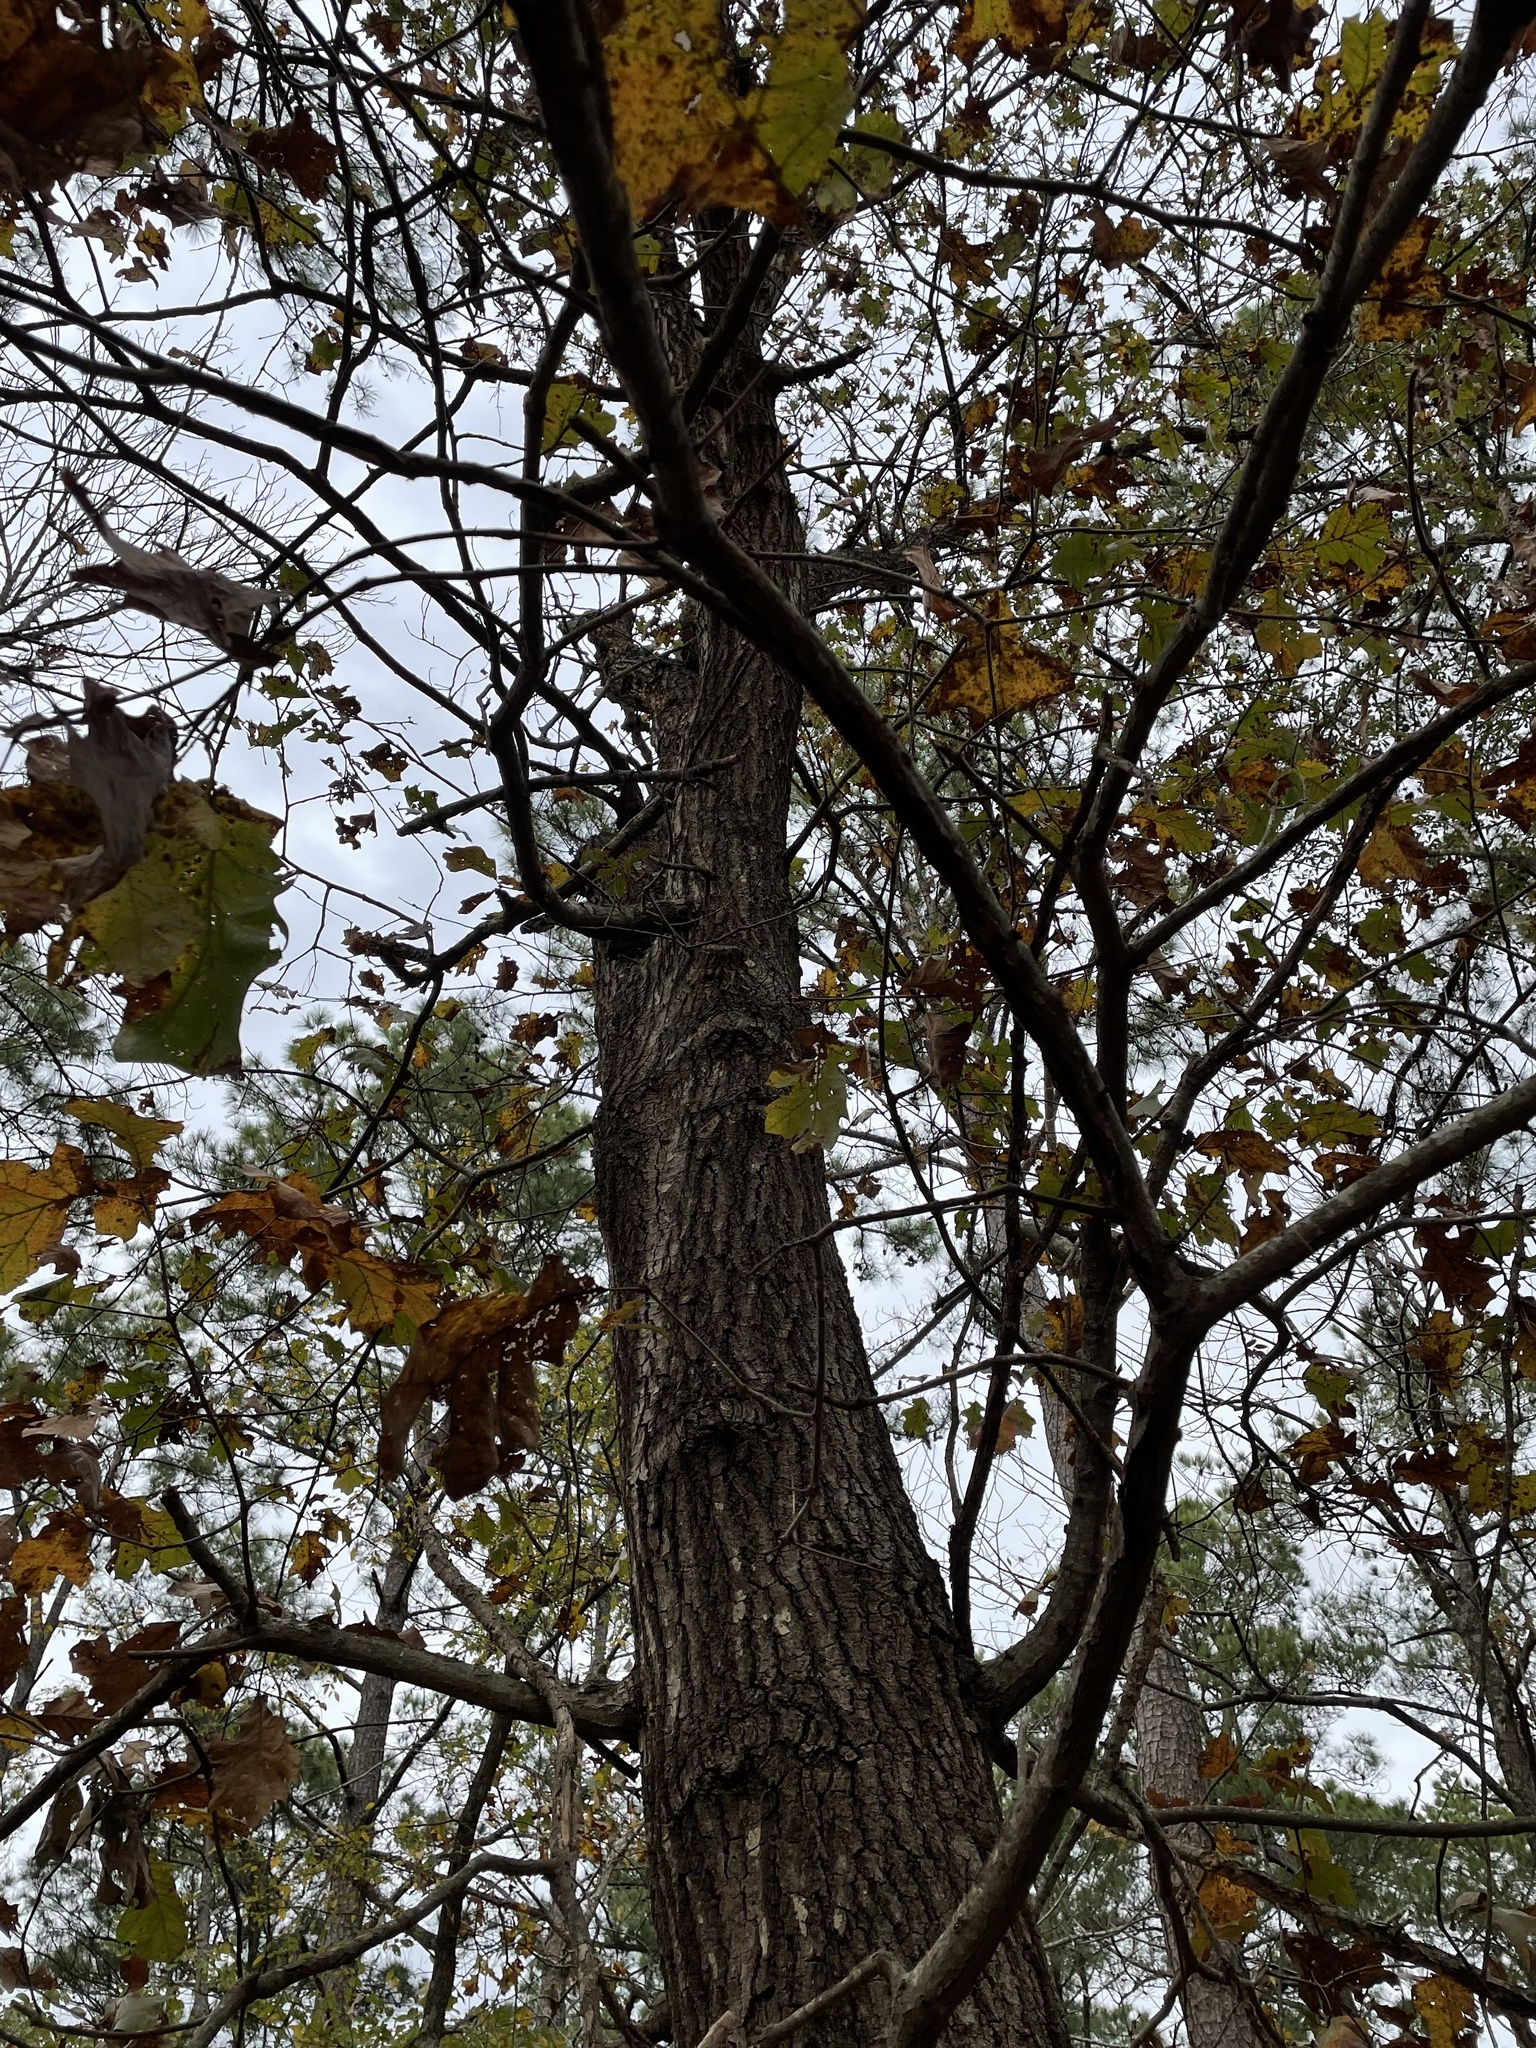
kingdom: Plantae
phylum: Tracheophyta
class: Magnoliopsida
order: Fagales
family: Fagaceae
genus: Quercus
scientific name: Quercus velutina
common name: Black oak
